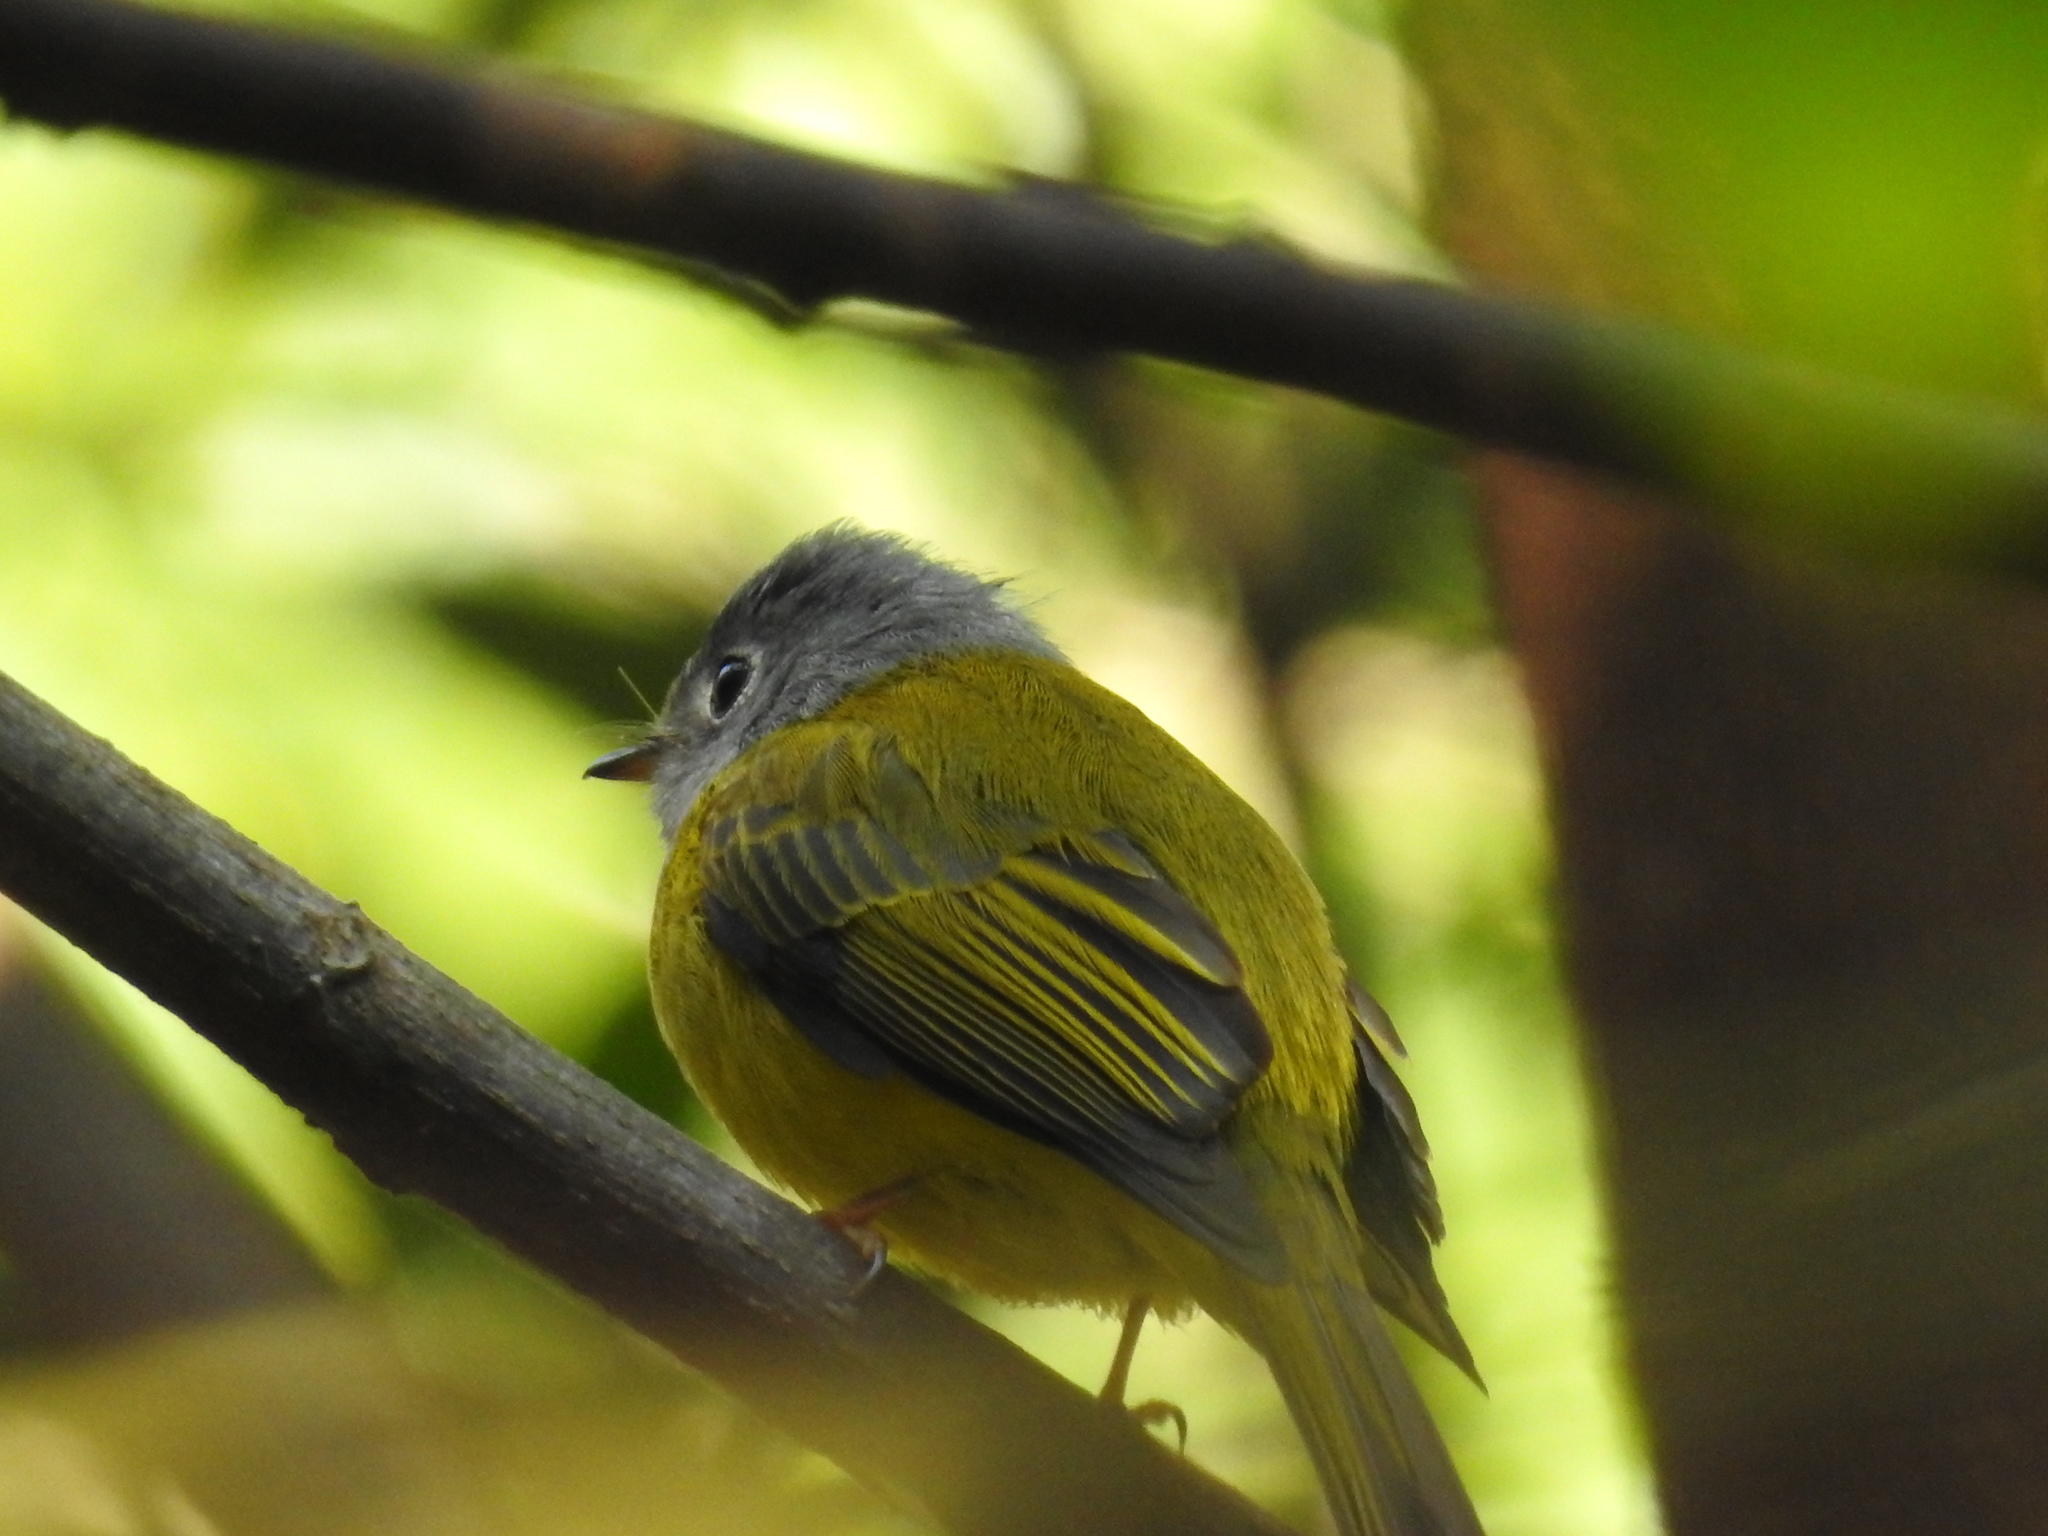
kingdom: Animalia
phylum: Chordata
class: Aves
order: Passeriformes
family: Stenostiridae
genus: Culicicapa
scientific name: Culicicapa ceylonensis
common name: Grey-headed canary-flycatcher
